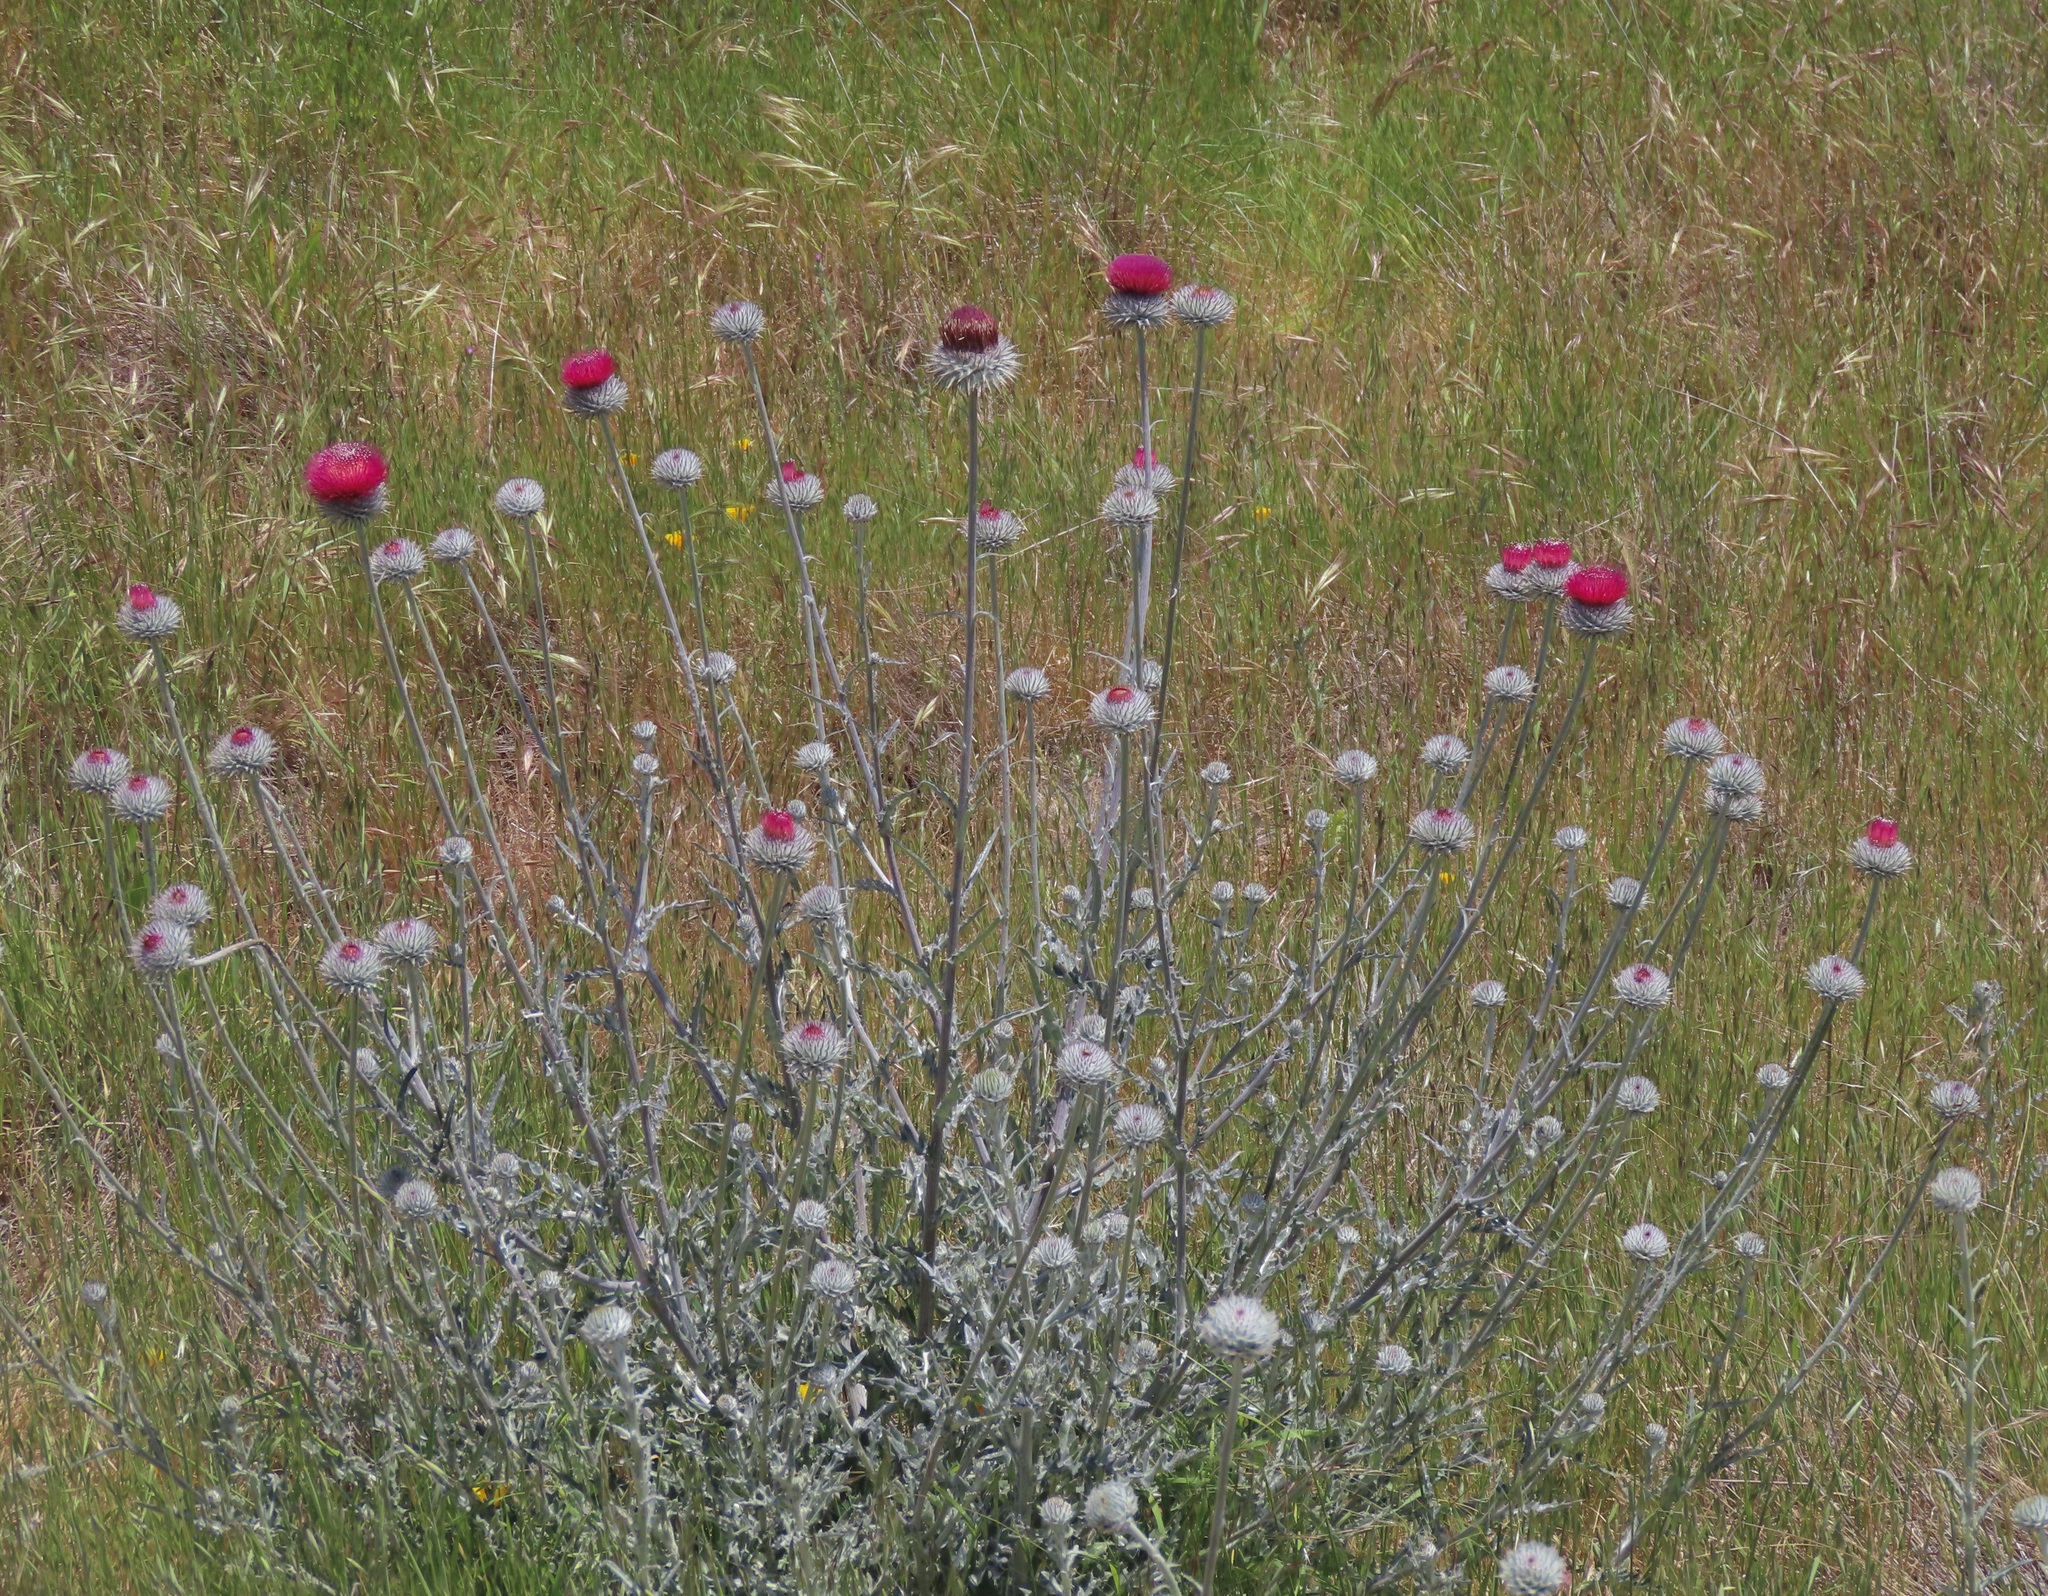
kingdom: Plantae
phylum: Tracheophyta
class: Magnoliopsida
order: Asterales
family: Asteraceae
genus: Cirsium
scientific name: Cirsium occidentale
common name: Western thistle
